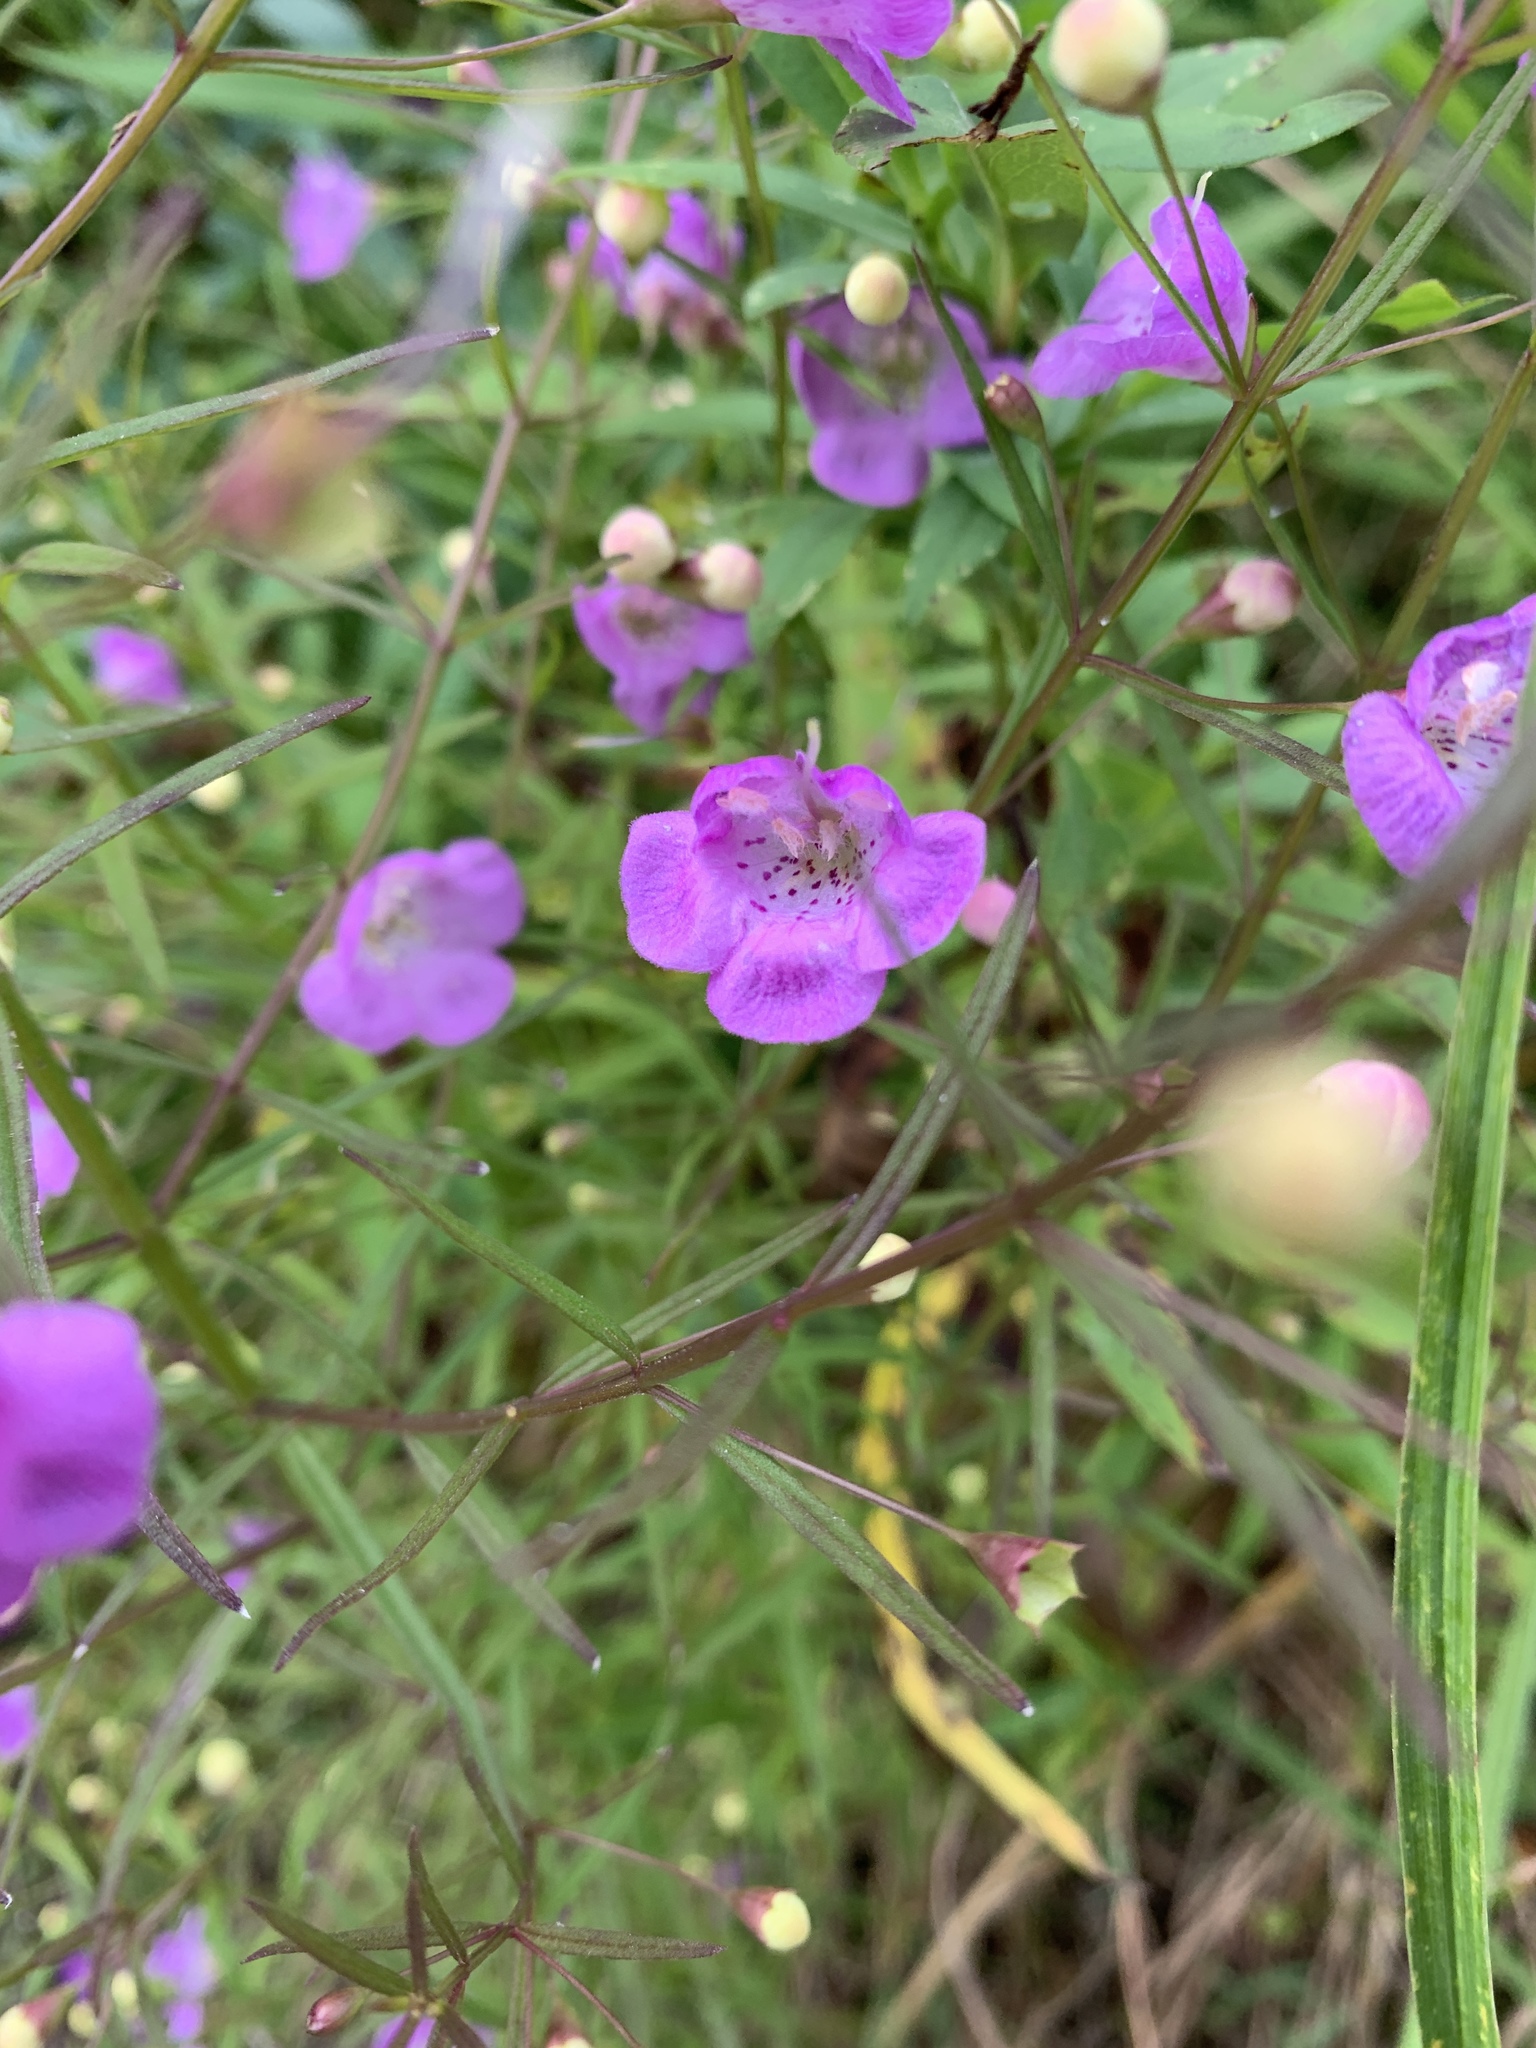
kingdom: Plantae
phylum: Tracheophyta
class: Magnoliopsida
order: Lamiales
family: Orobanchaceae
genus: Agalinis
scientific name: Agalinis tenuifolia
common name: Slender agalinis
